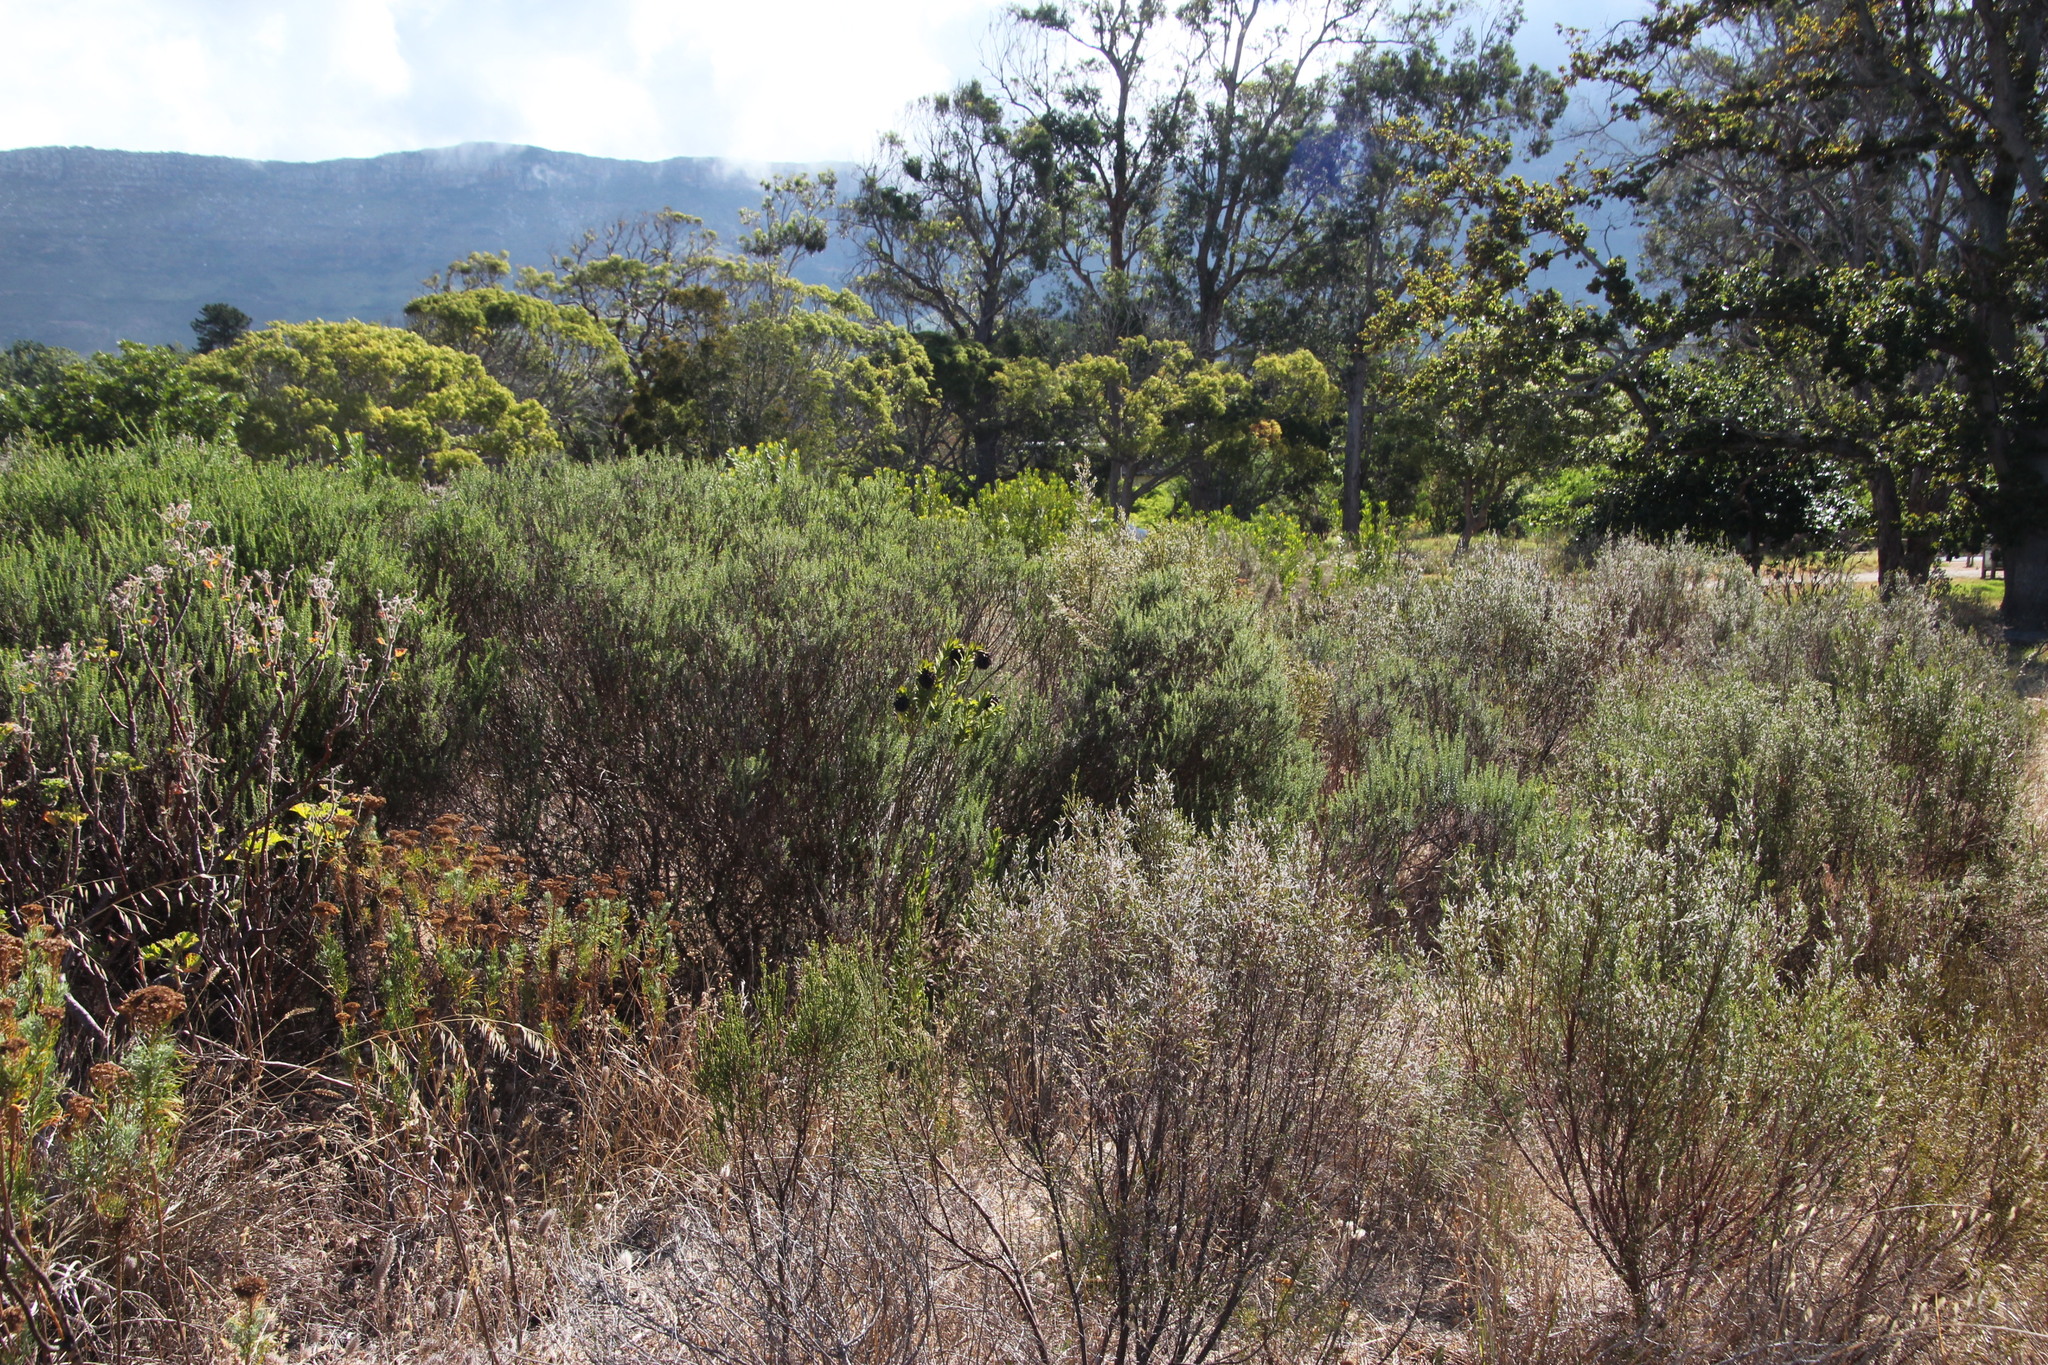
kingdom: Plantae
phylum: Tracheophyta
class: Magnoliopsida
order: Fabales
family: Fabaceae
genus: Liparia
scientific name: Liparia splendens
